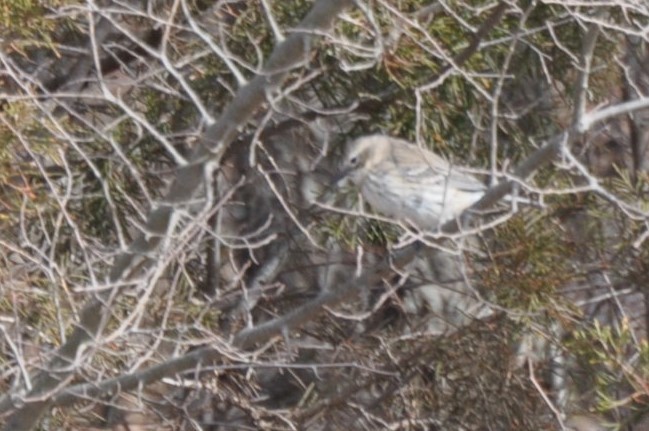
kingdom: Animalia
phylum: Chordata
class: Aves
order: Passeriformes
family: Parulidae
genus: Setophaga
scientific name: Setophaga coronata
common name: Myrtle warbler
